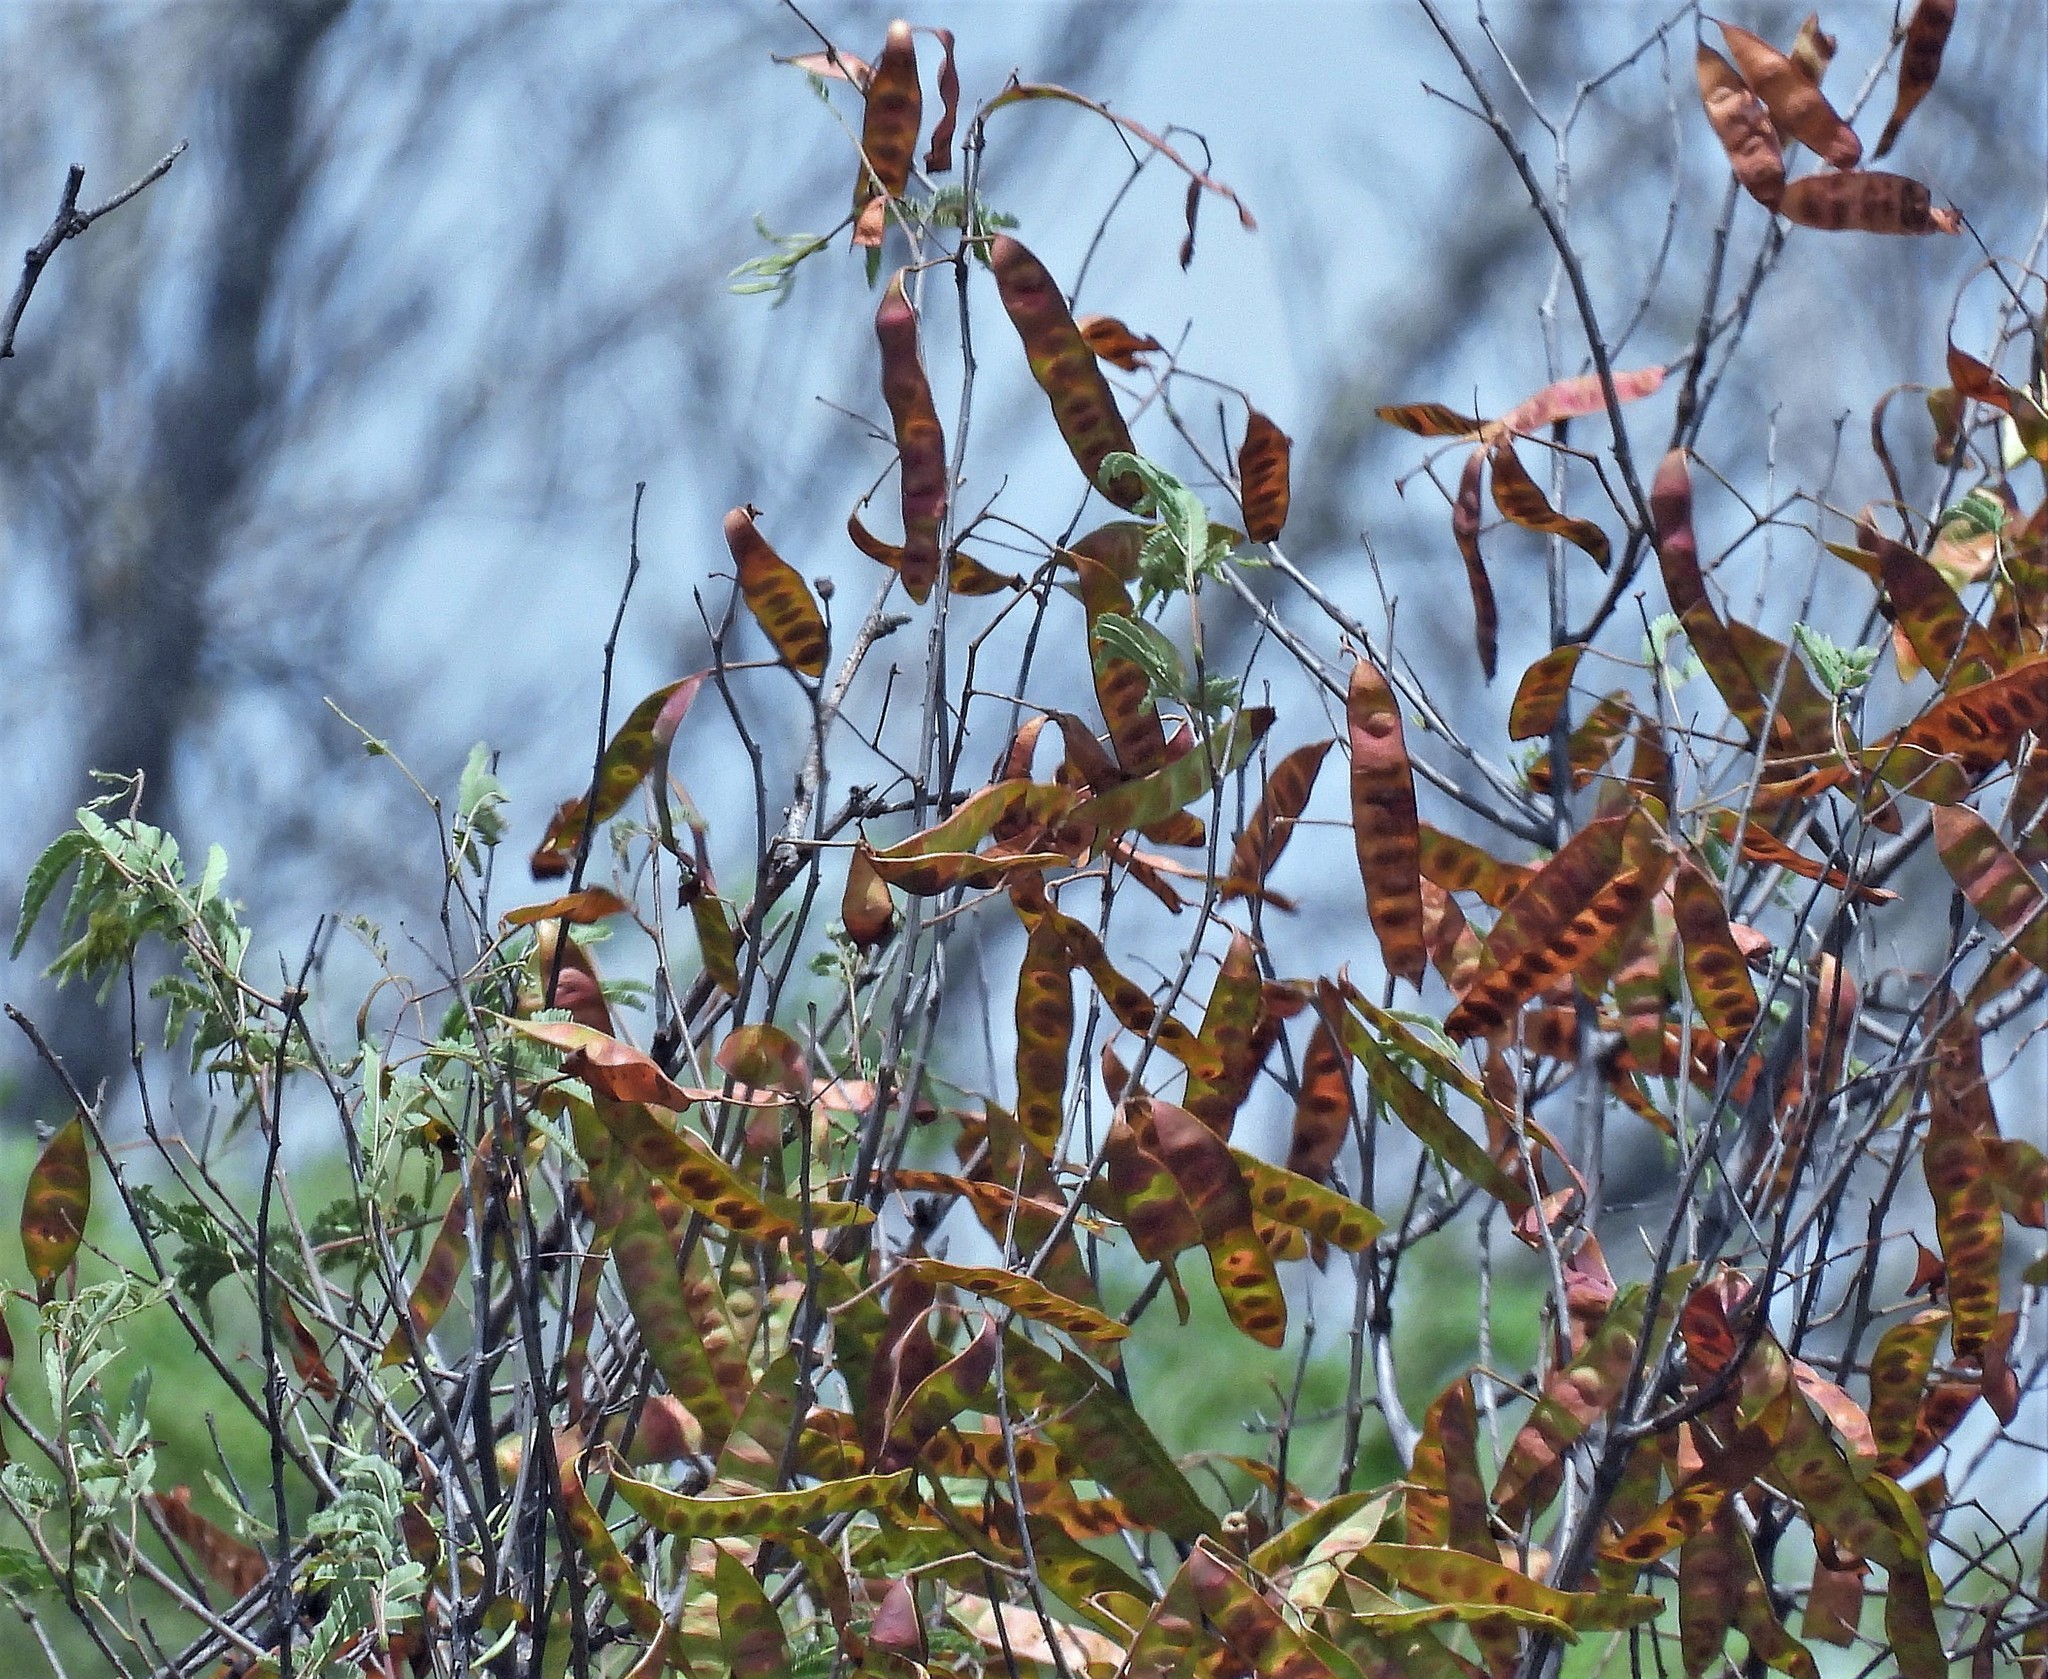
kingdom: Plantae
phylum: Tracheophyta
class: Magnoliopsida
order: Fabales
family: Fabaceae
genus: Senegalia
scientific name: Senegalia praecox
